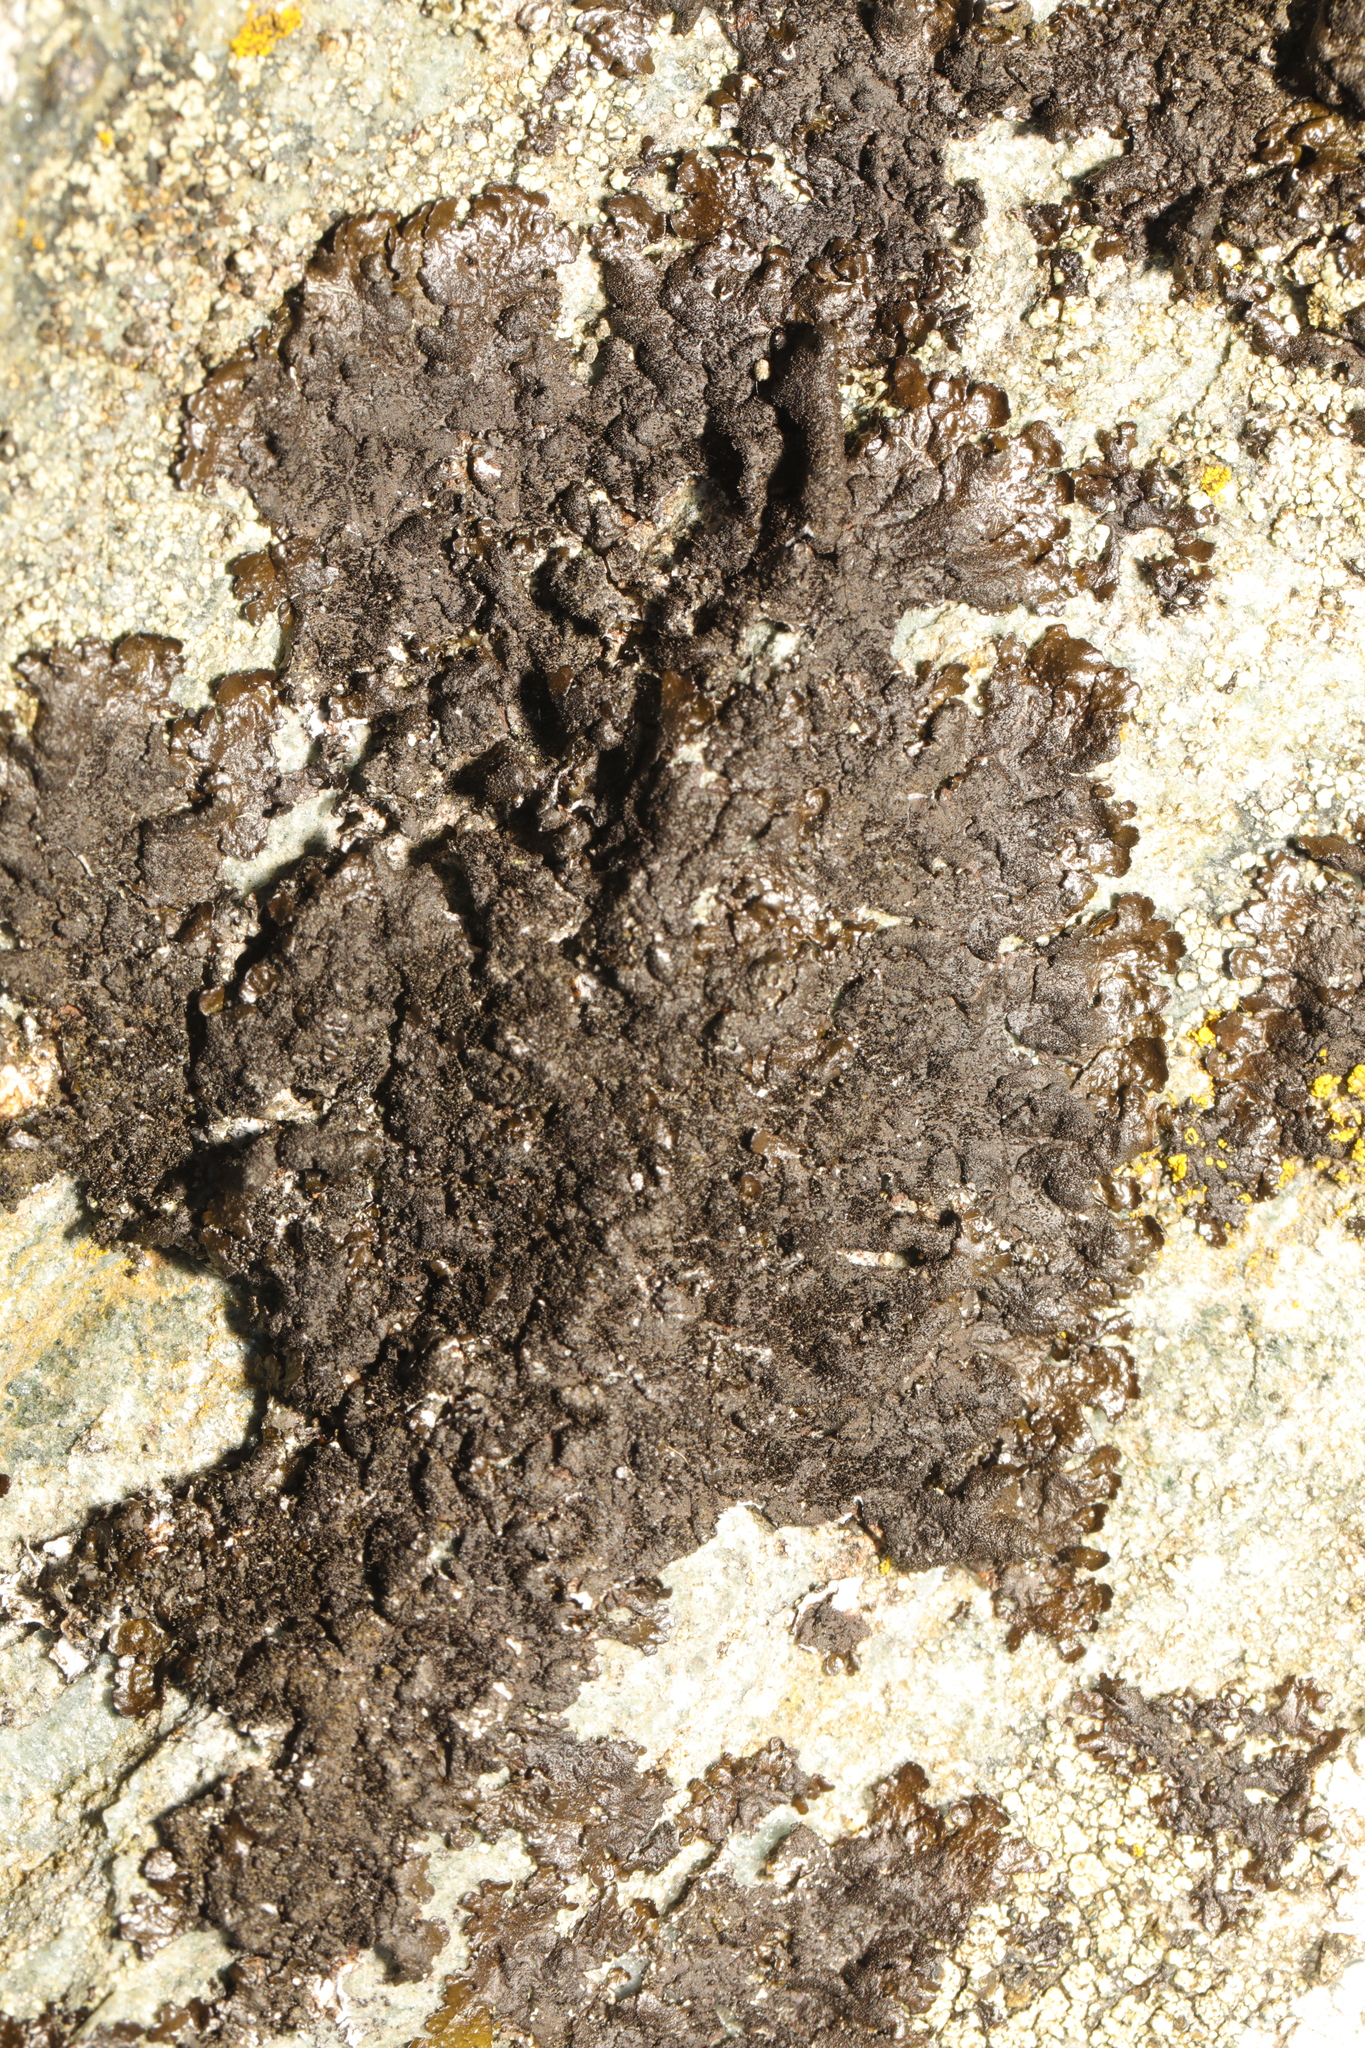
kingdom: Fungi
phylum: Ascomycota
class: Lecanoromycetes
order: Lecanorales
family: Parmeliaceae
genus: Melanelixia
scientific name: Melanelixia fuliginosa
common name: Shiny camouflage lichen
